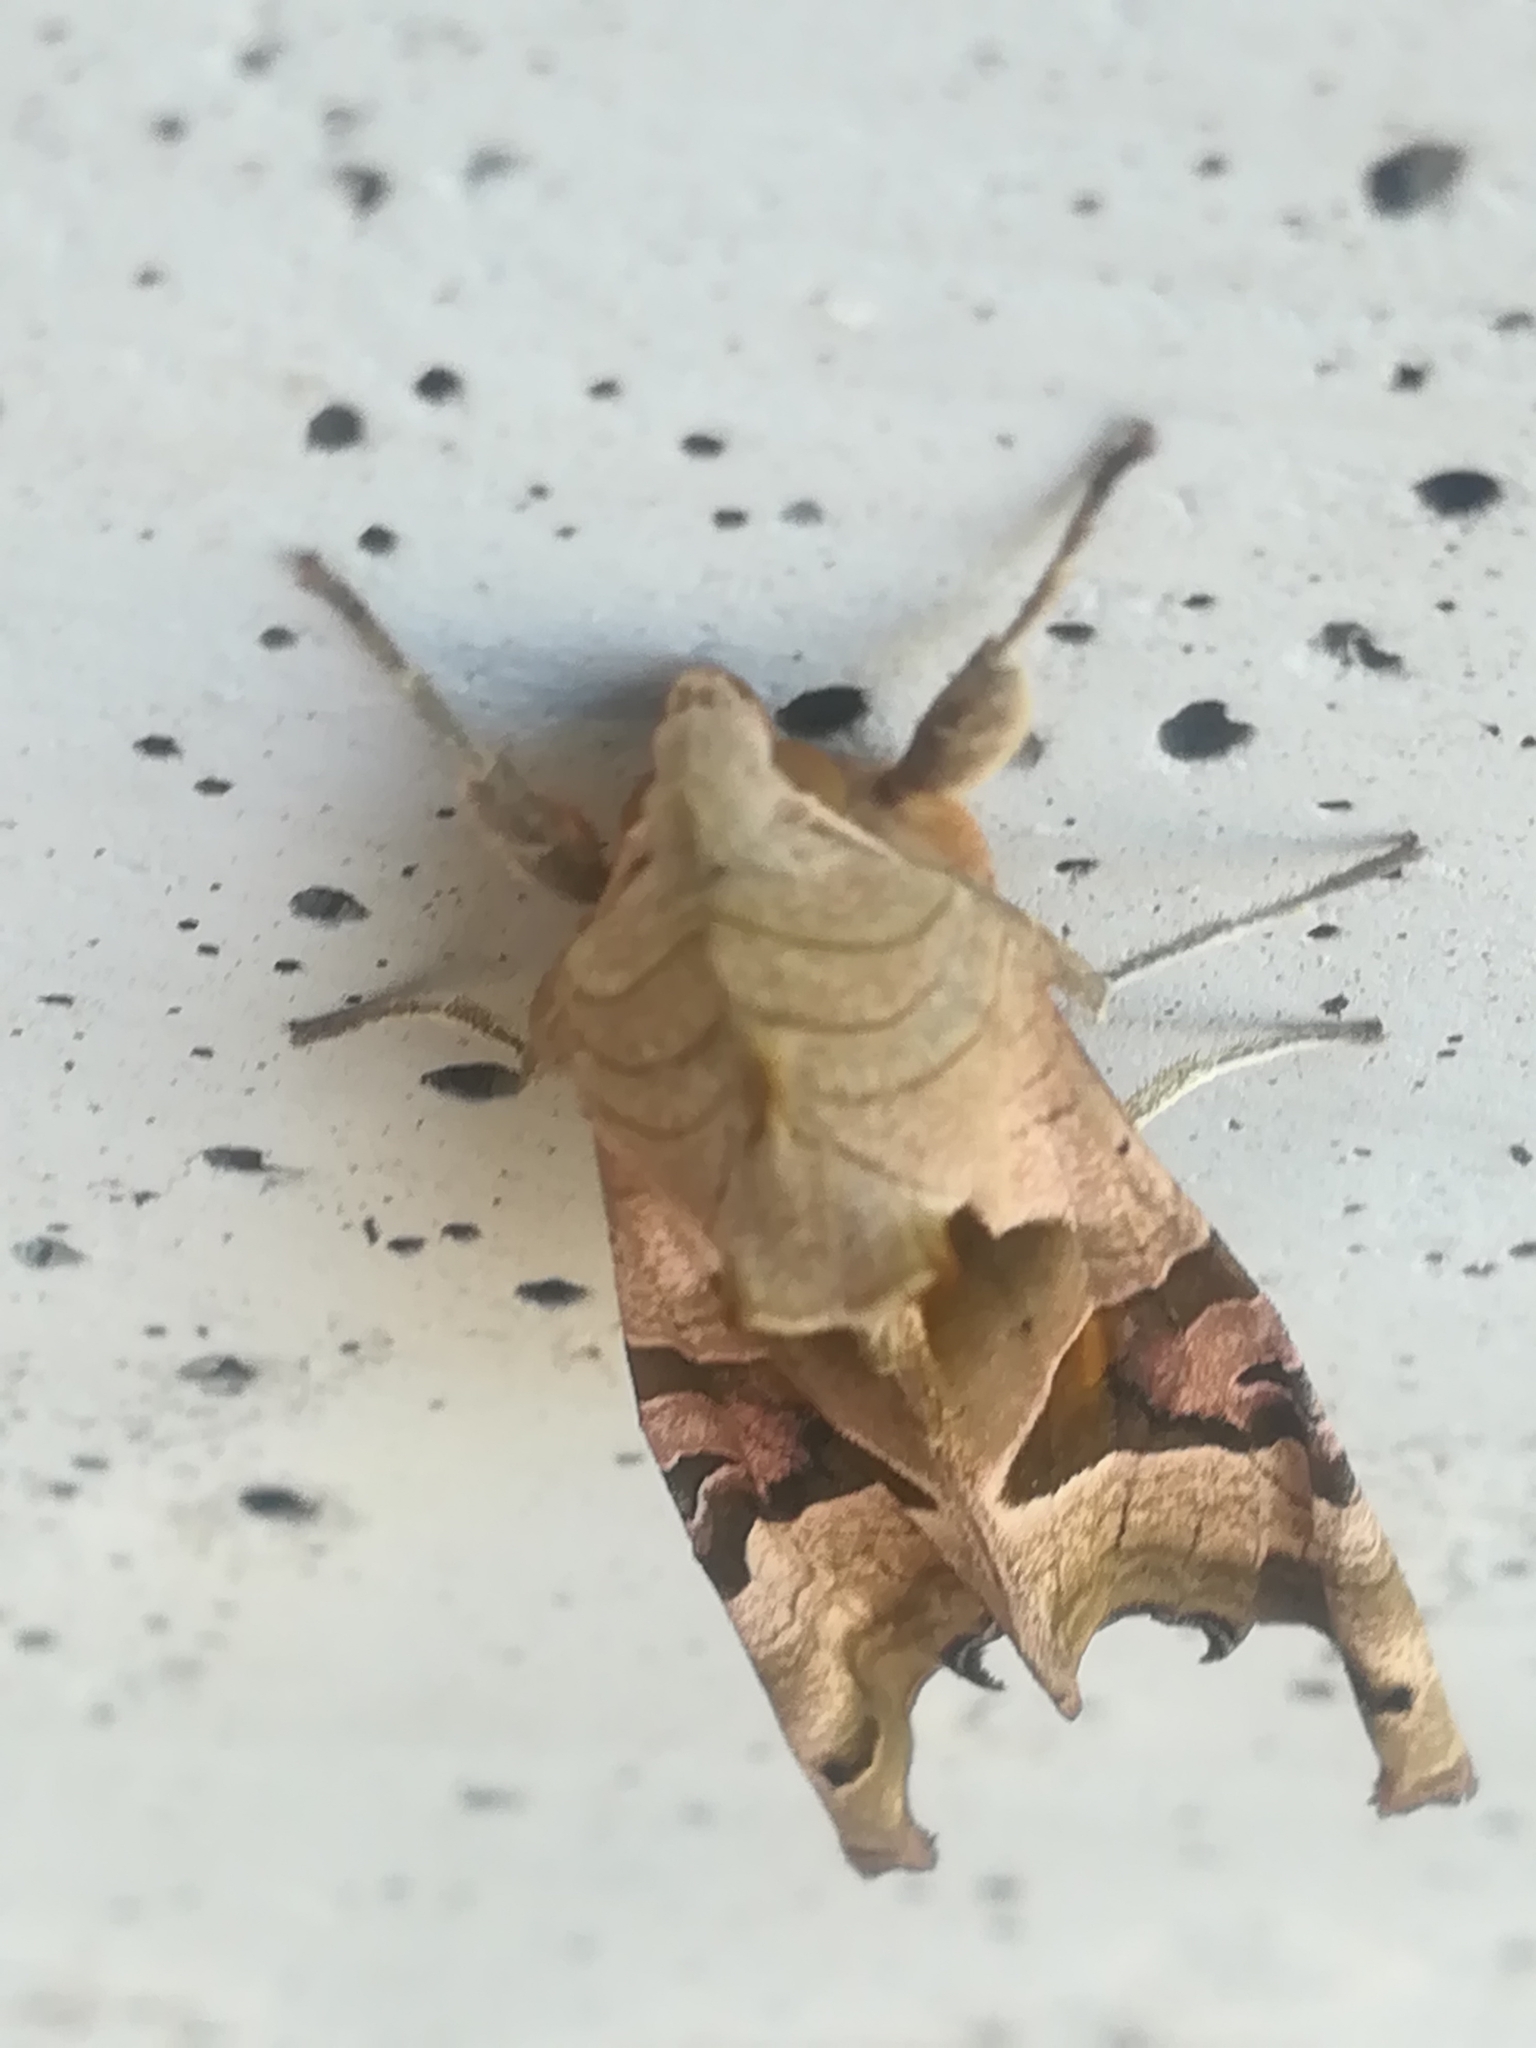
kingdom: Animalia
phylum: Arthropoda
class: Insecta
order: Lepidoptera
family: Noctuidae
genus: Phlogophora
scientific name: Phlogophora meticulosa
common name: Angle shades
